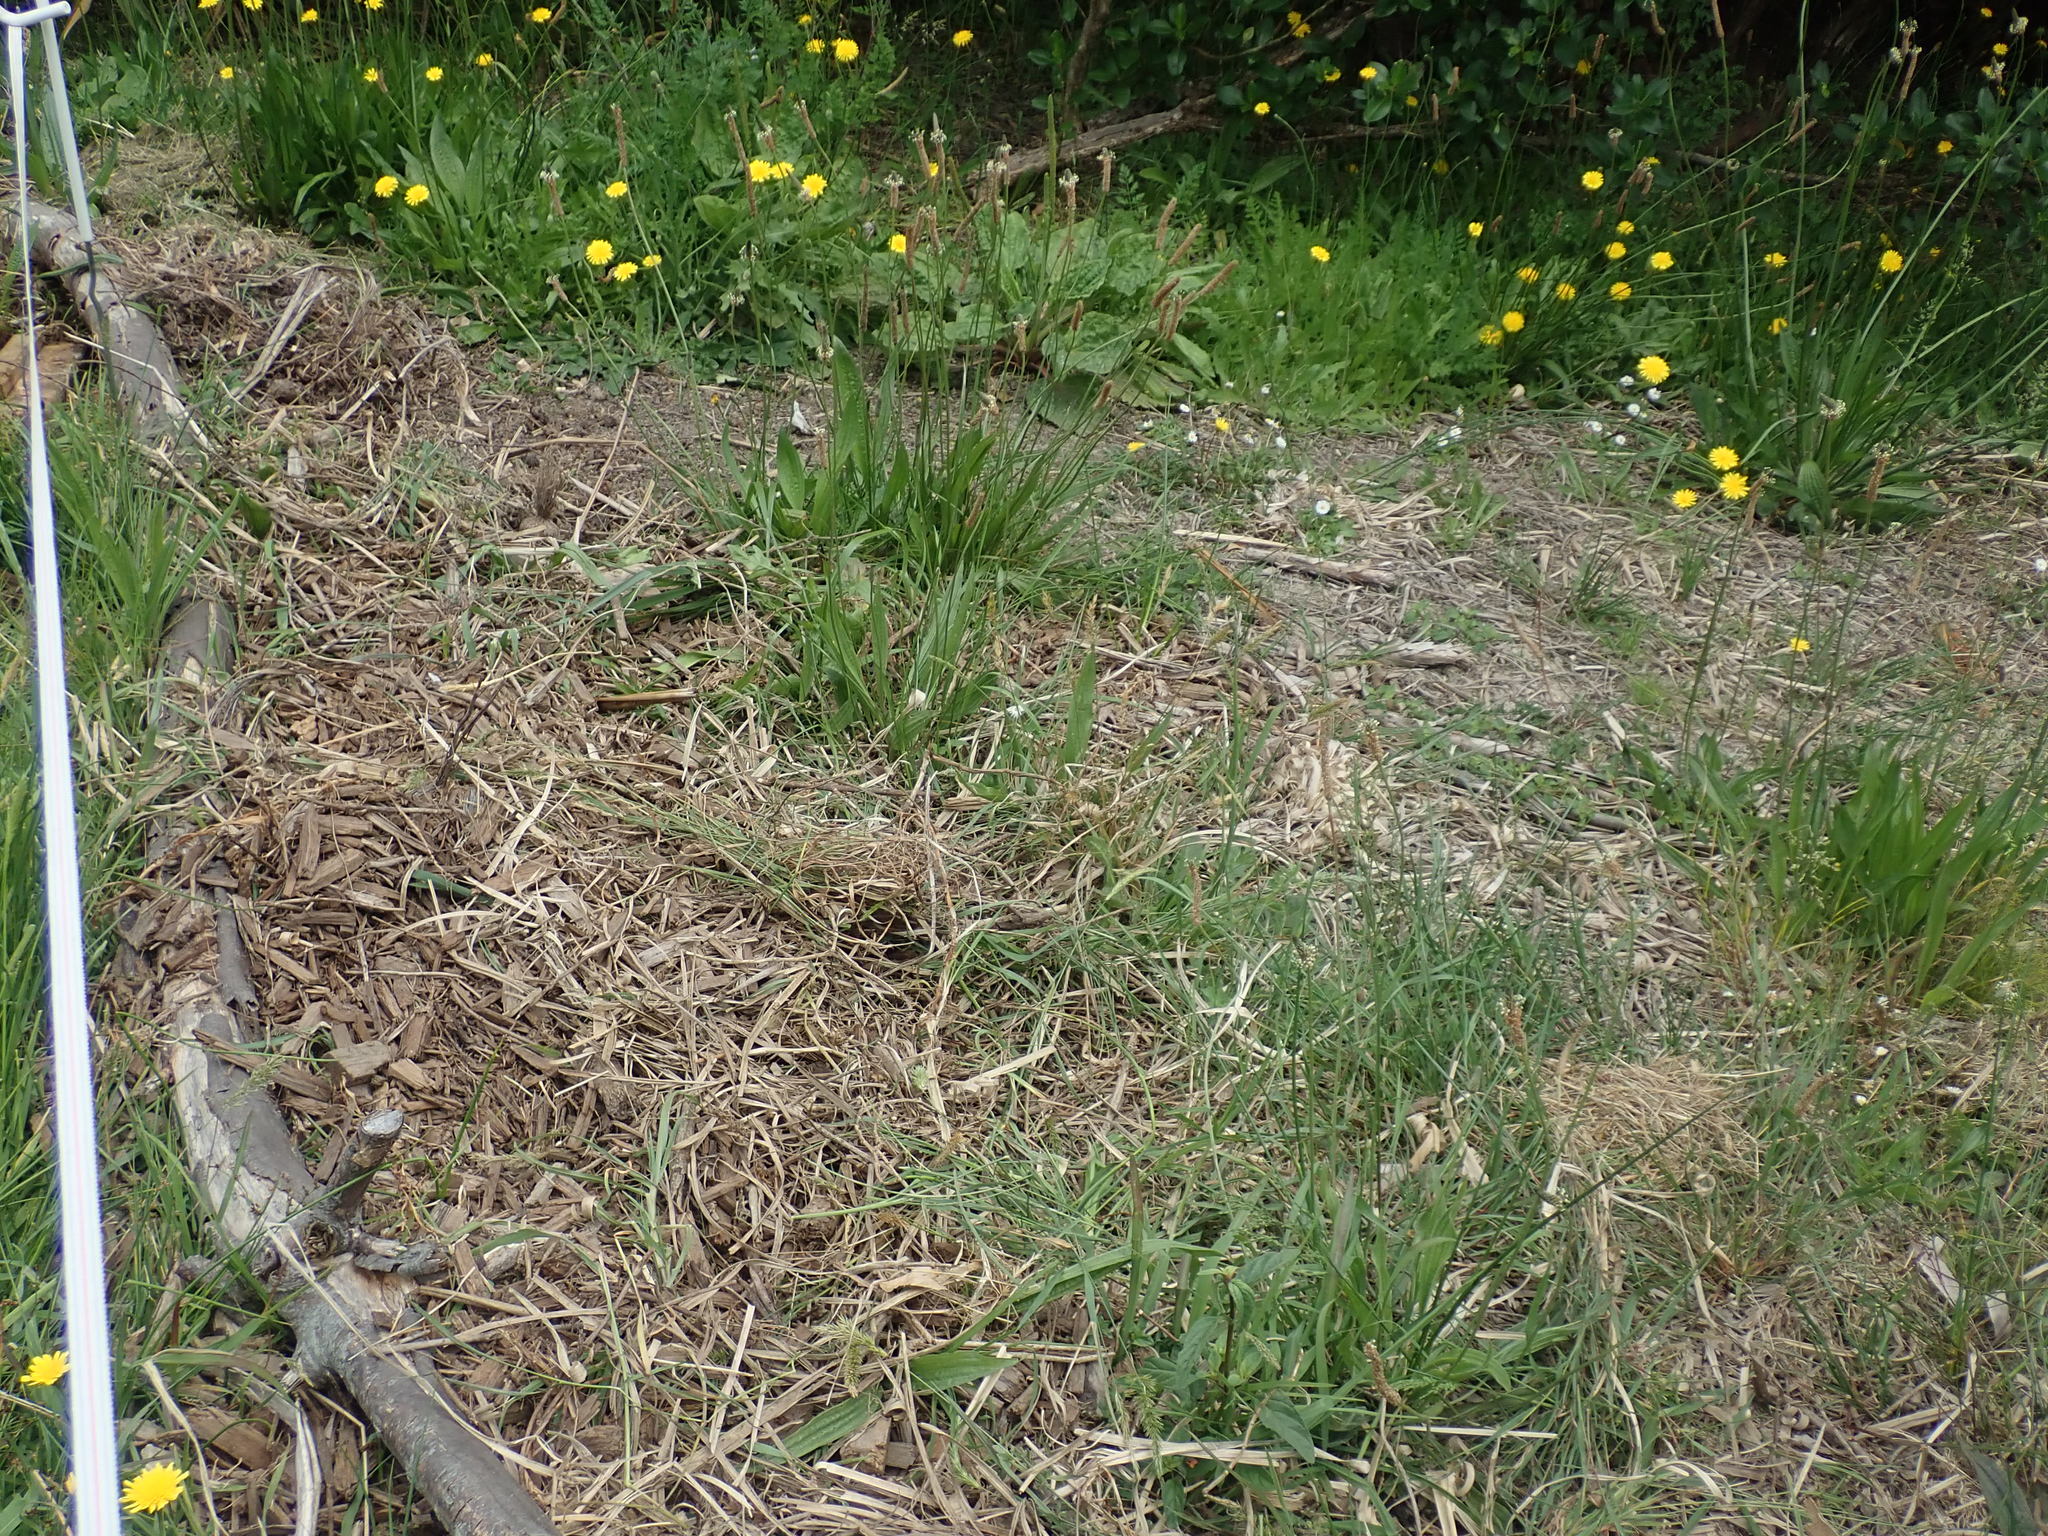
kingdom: Plantae
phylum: Tracheophyta
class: Magnoliopsida
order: Lamiales
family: Plantaginaceae
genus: Plantago
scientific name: Plantago major
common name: Common plantain
